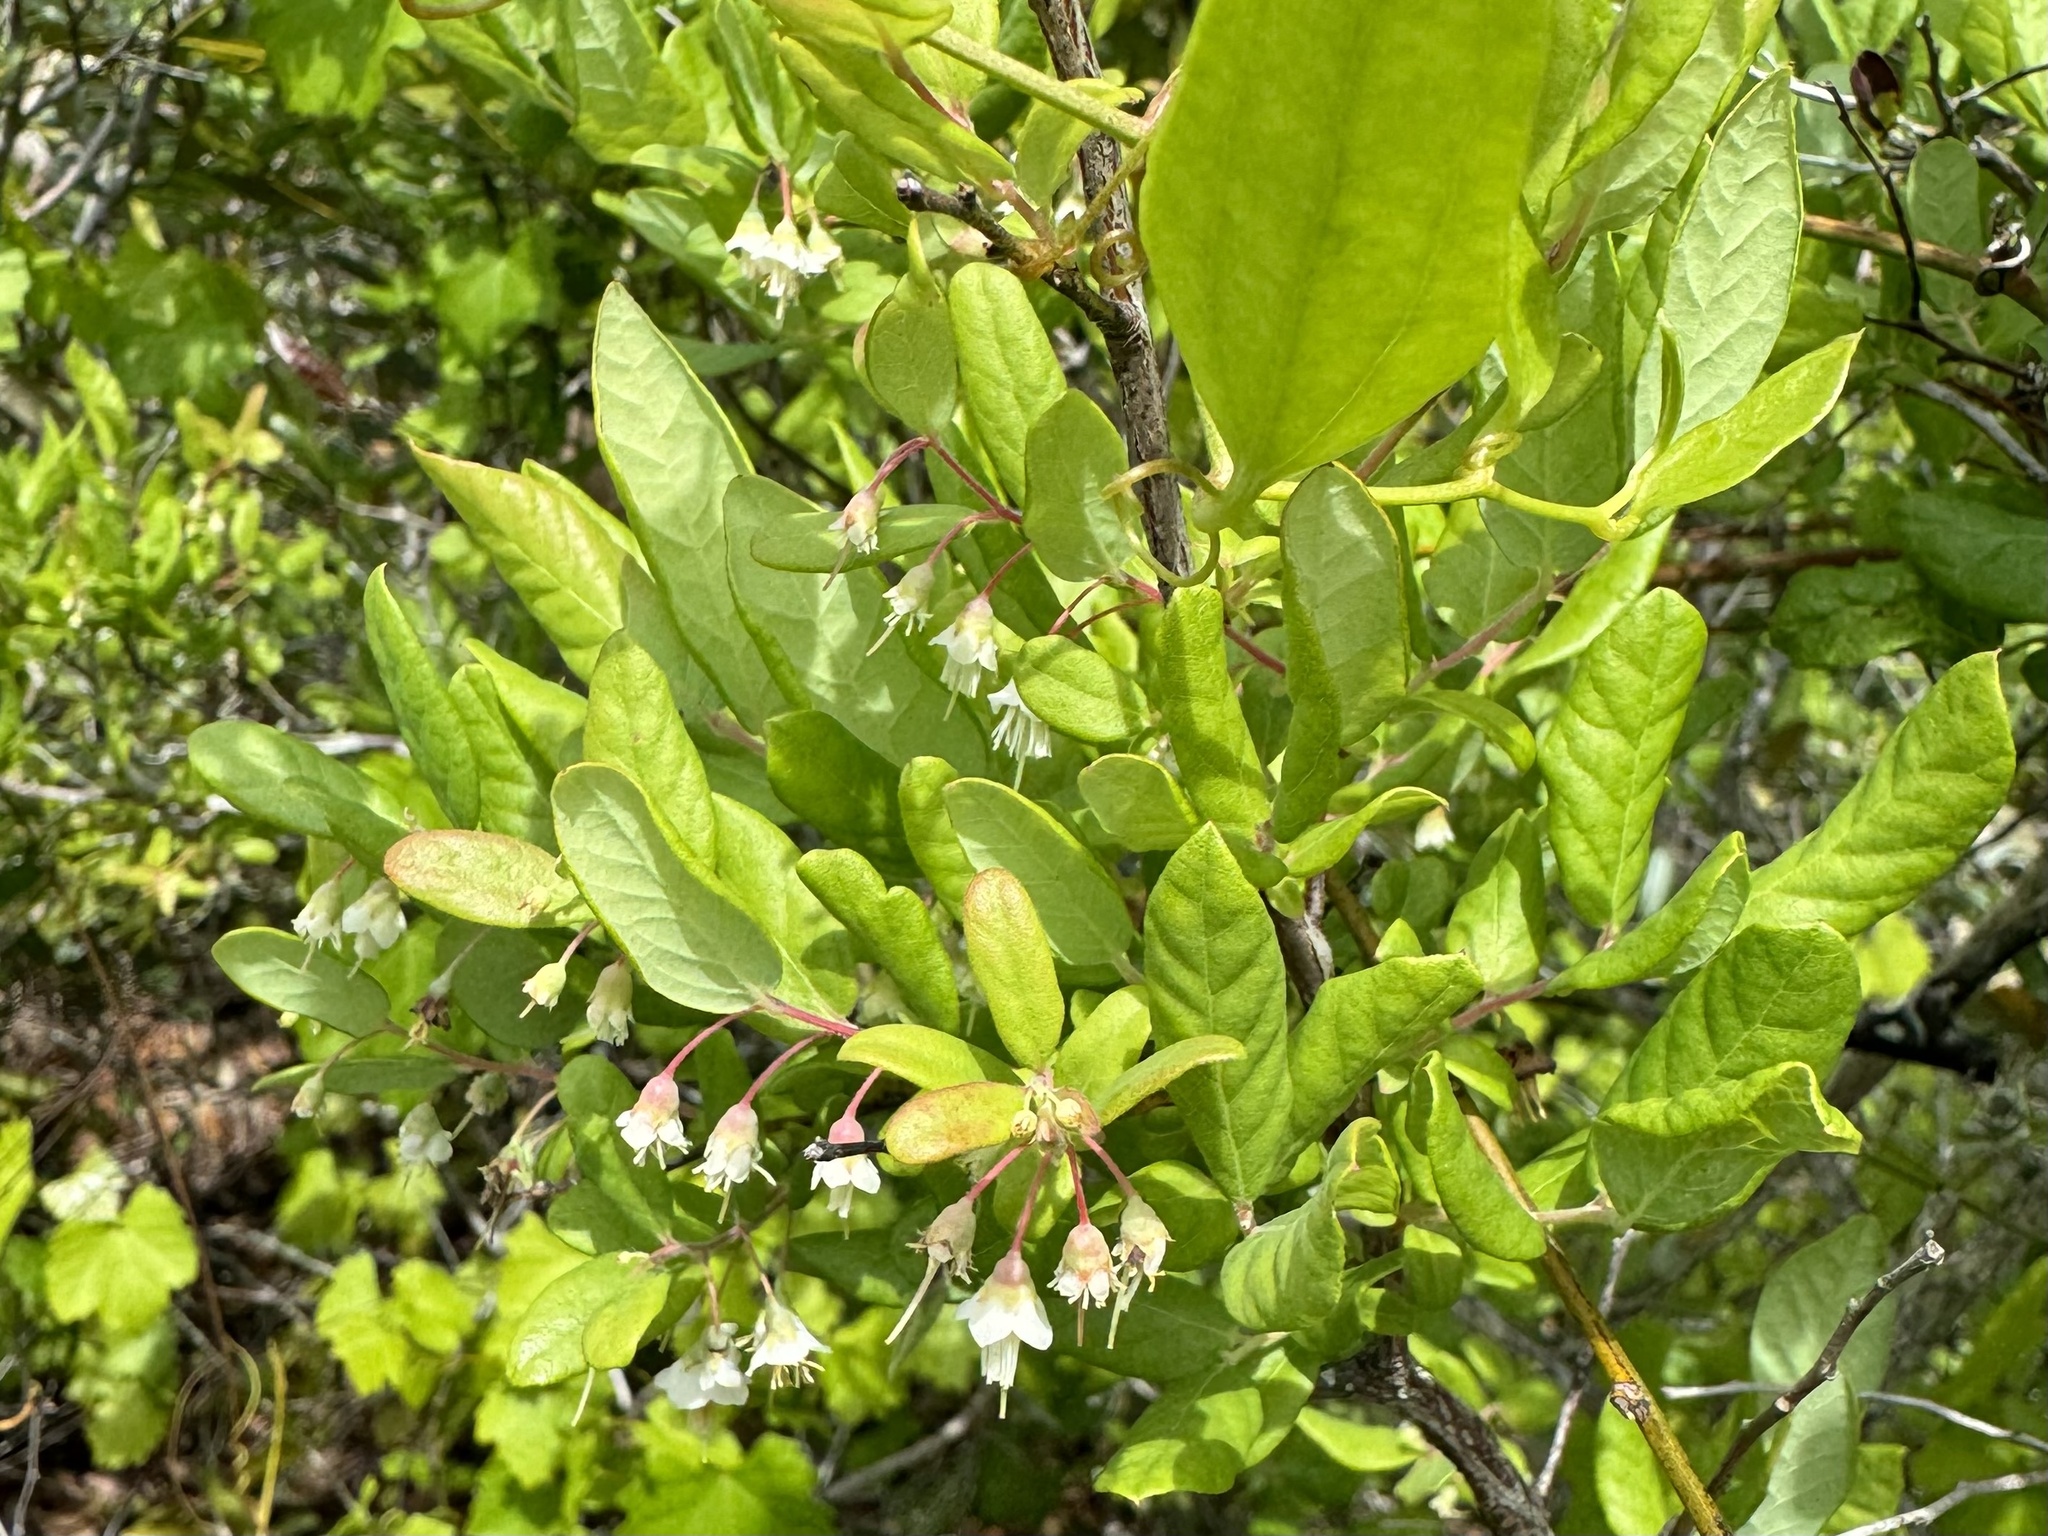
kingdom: Plantae
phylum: Tracheophyta
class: Magnoliopsida
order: Ericales
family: Ericaceae
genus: Vaccinium
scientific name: Vaccinium stamineum
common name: Deerberry
